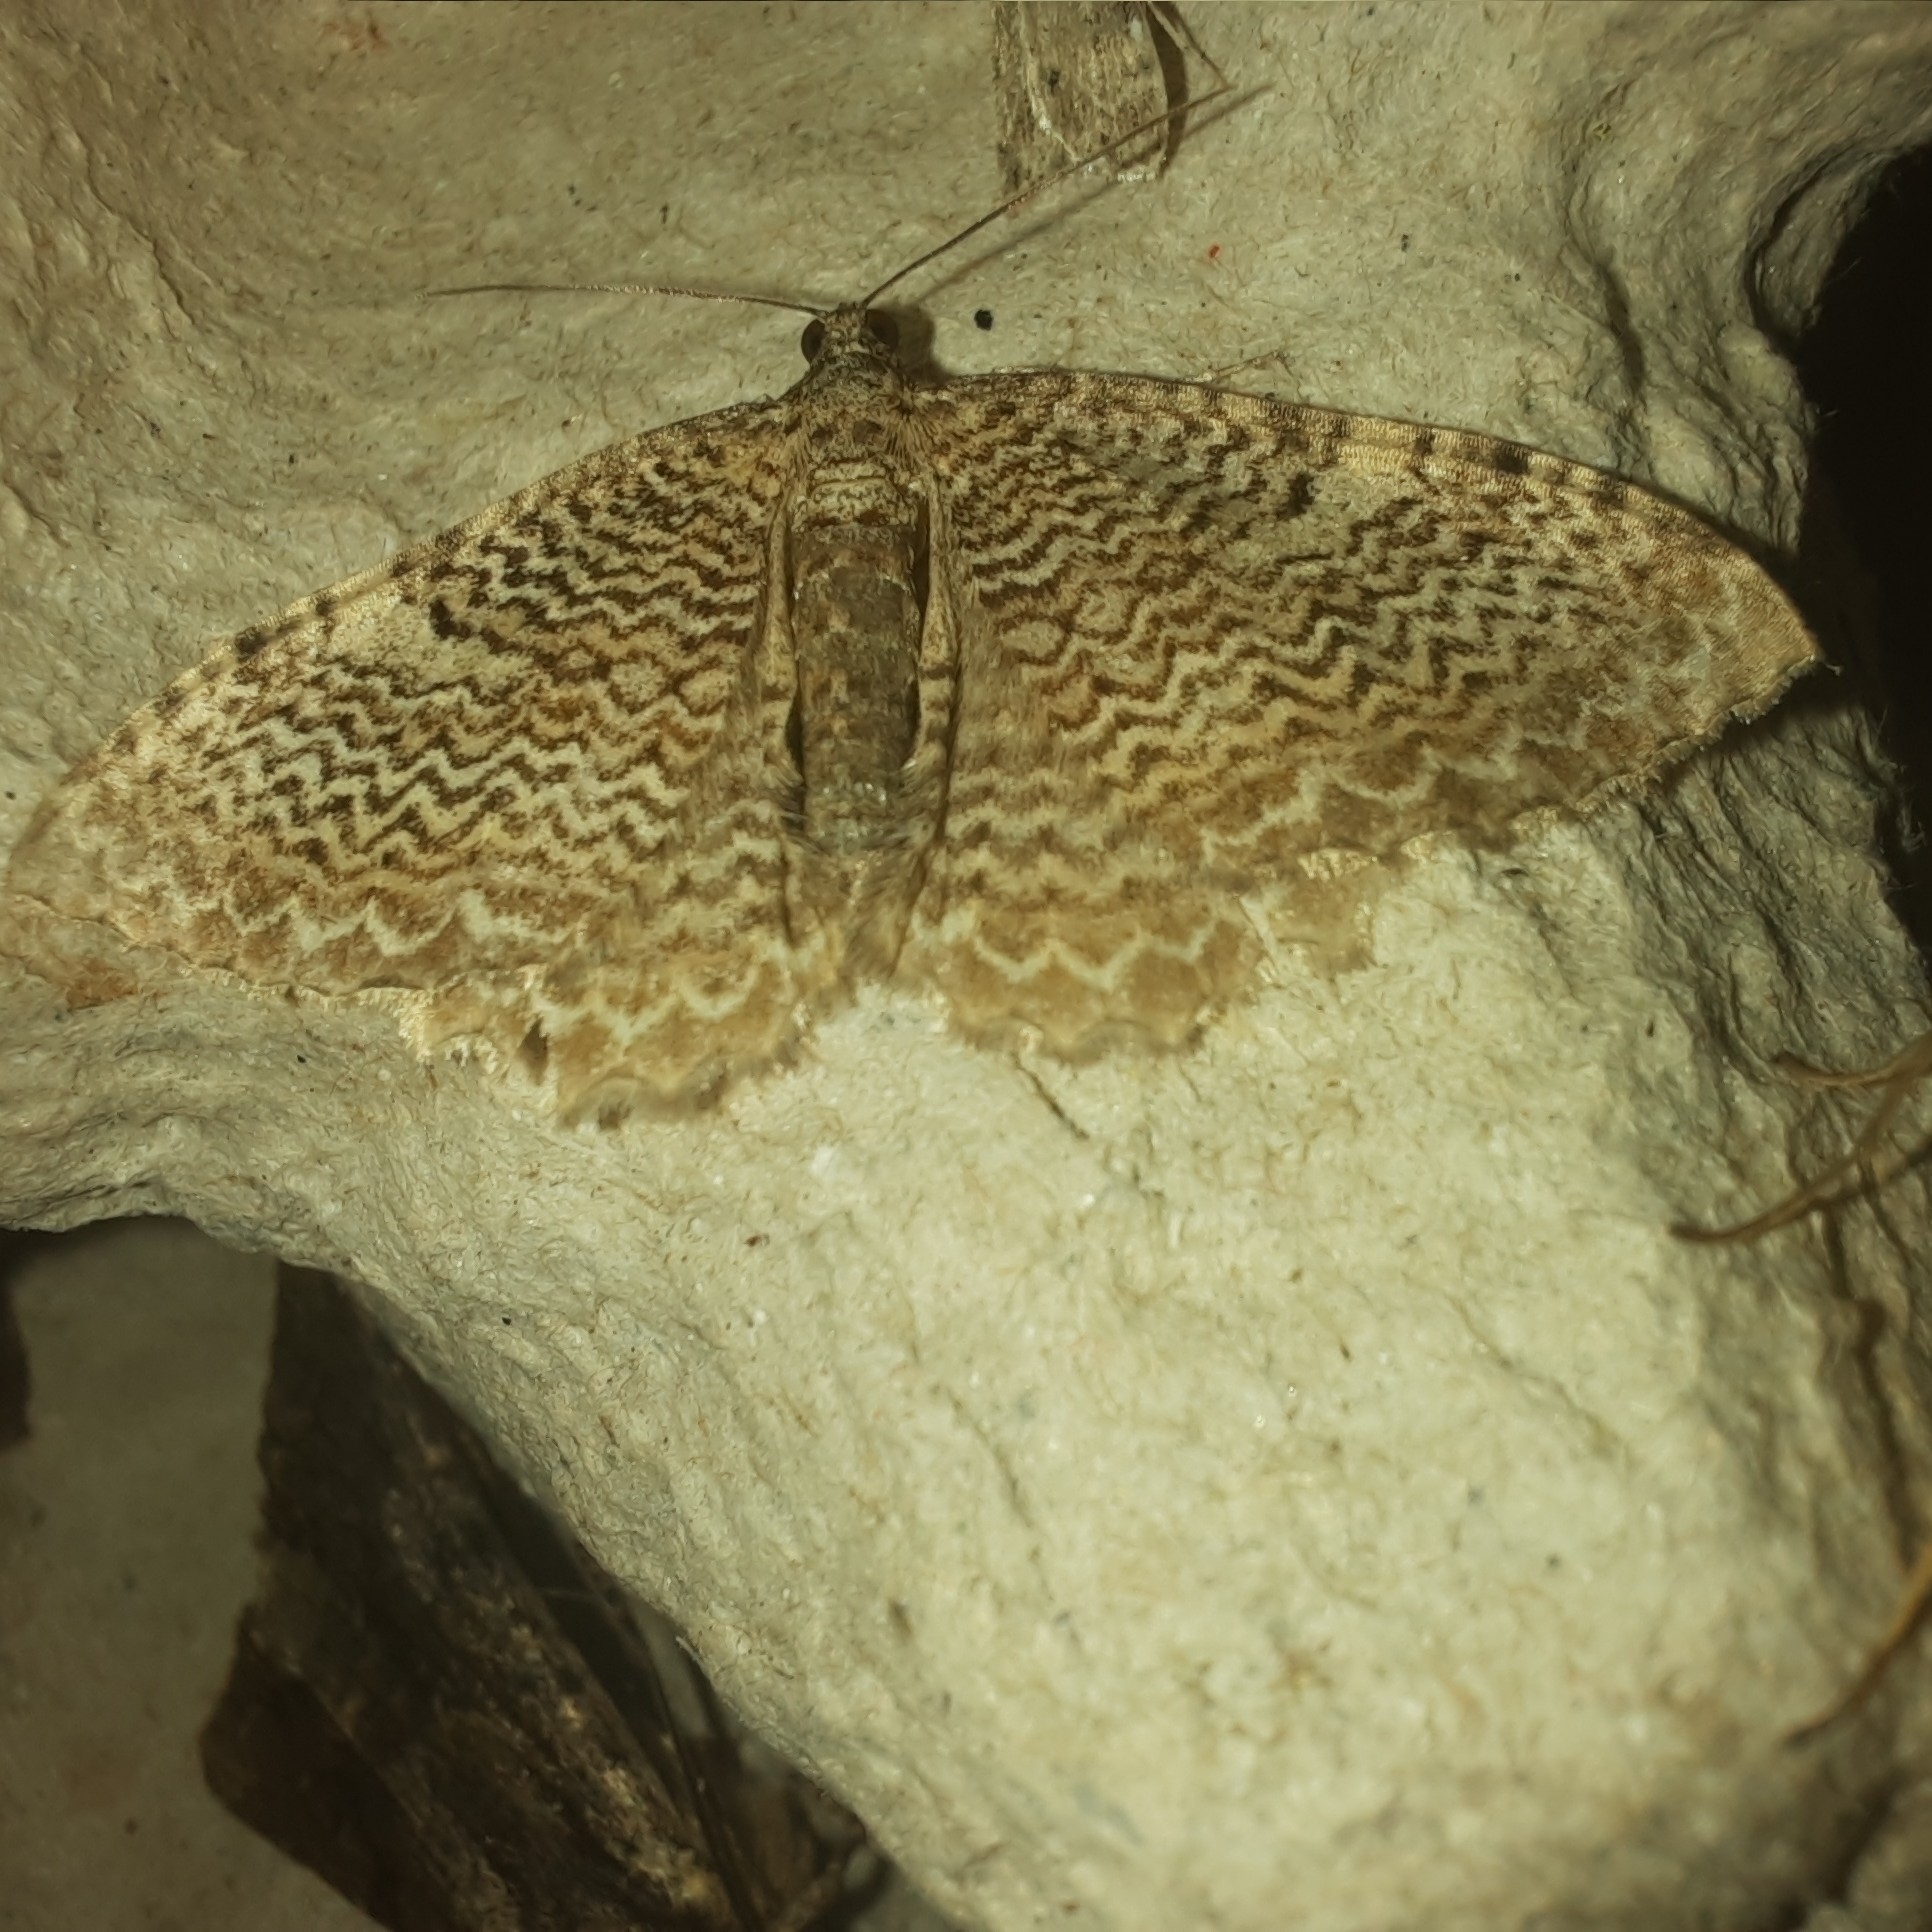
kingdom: Animalia
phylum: Arthropoda
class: Insecta
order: Lepidoptera
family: Geometridae
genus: Rheumaptera
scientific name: Rheumaptera undulata
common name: Scallop shell
